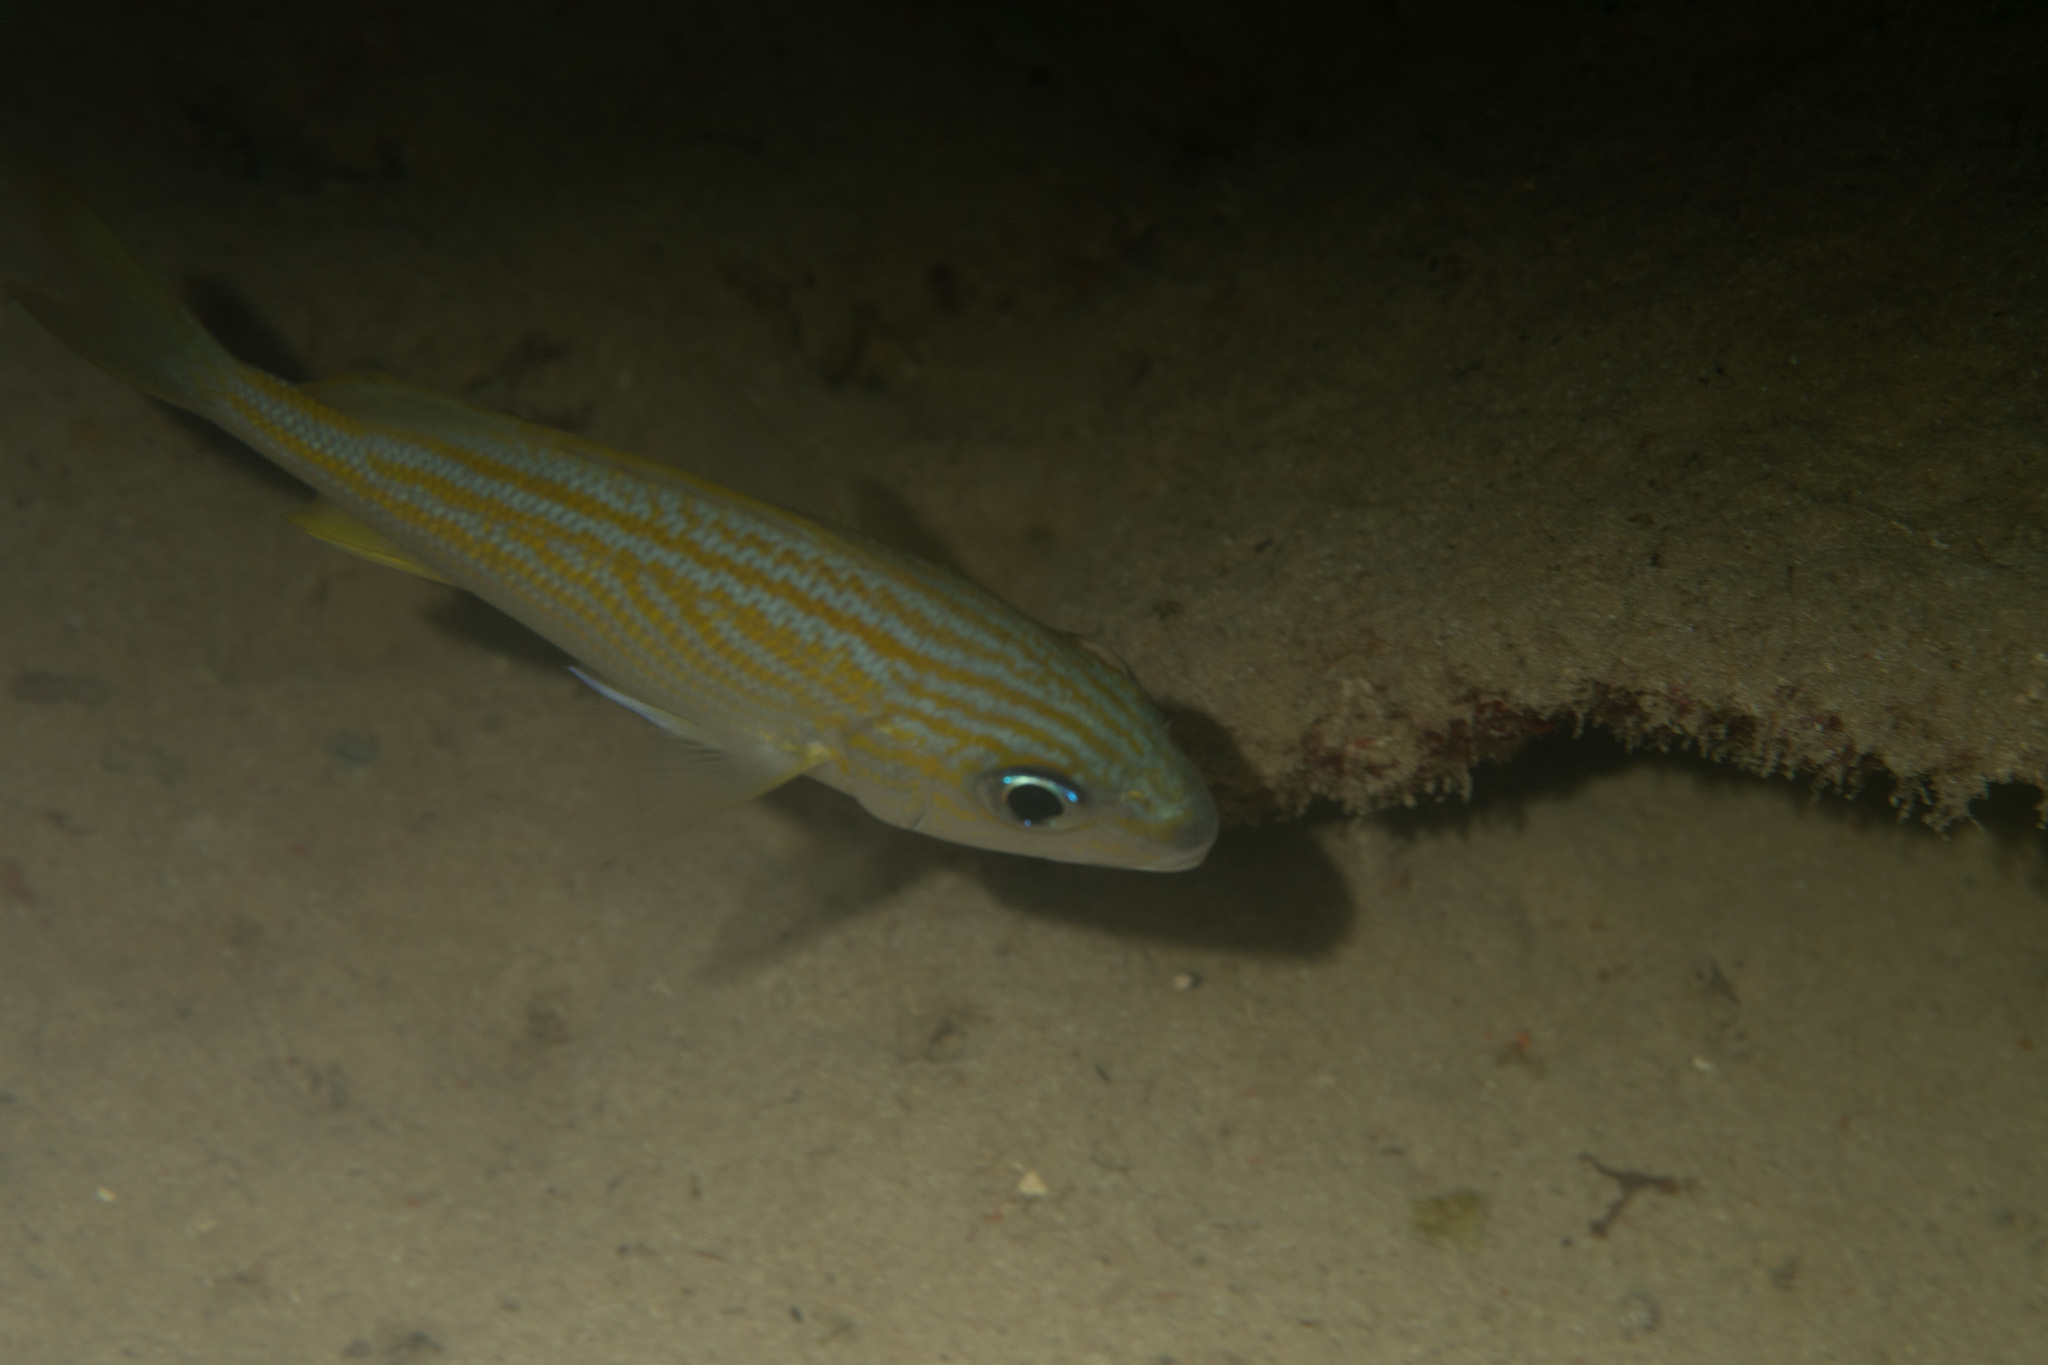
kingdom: Animalia
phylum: Chordata
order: Perciformes
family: Haemulidae
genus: Haemulon
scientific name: Haemulon flavolineatum
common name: French grunt
